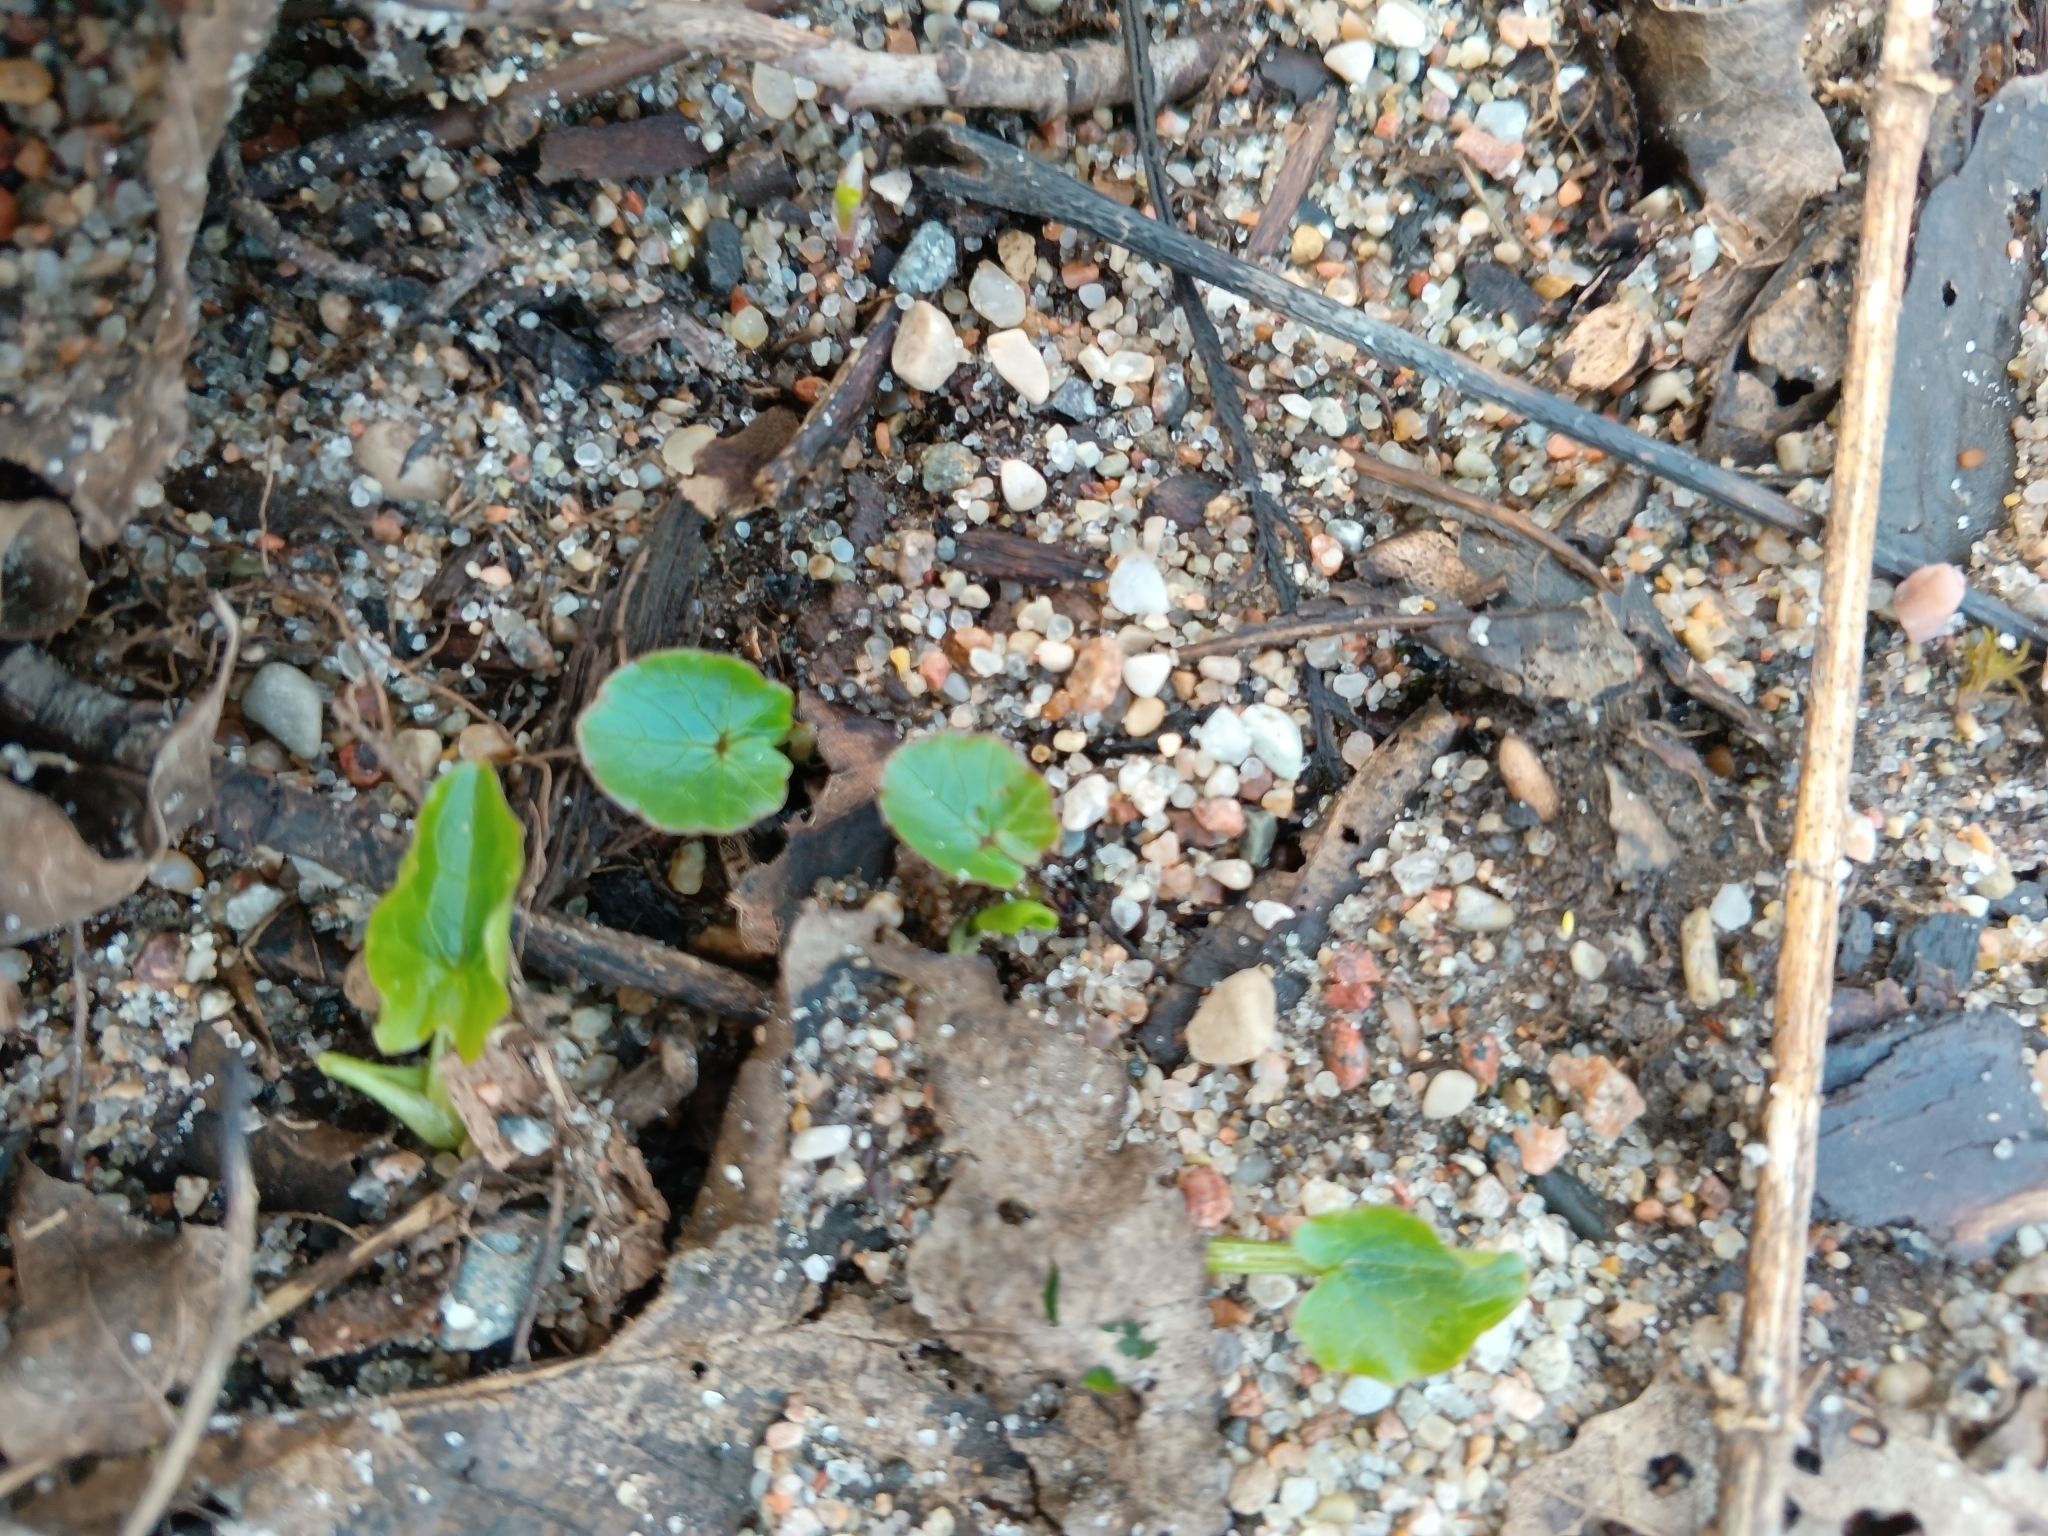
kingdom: Plantae
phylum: Tracheophyta
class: Magnoliopsida
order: Ranunculales
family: Ranunculaceae
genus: Ficaria
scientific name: Ficaria verna
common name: Lesser celandine
